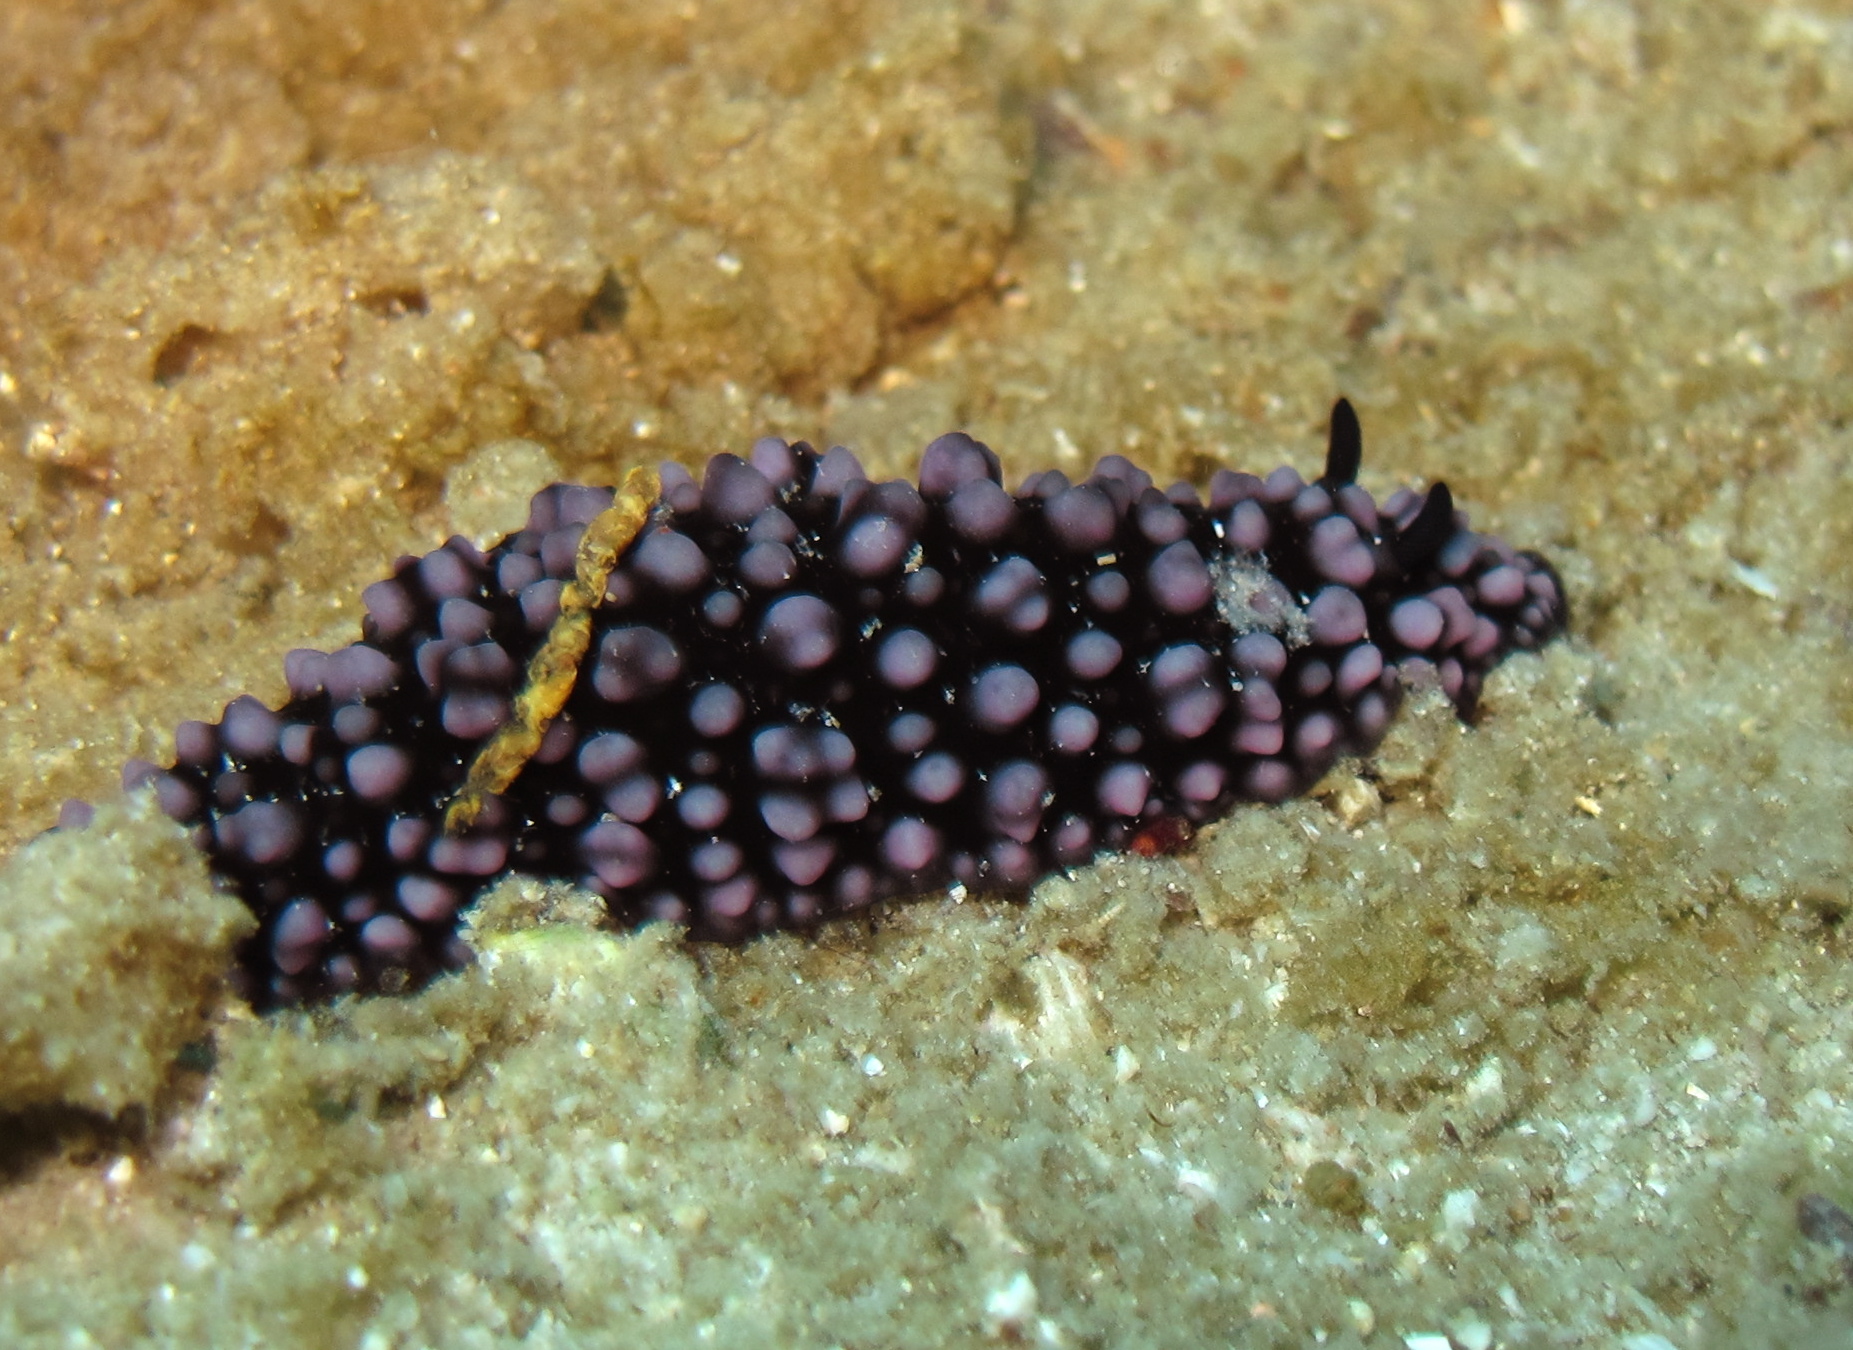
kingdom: Animalia
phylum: Mollusca
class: Gastropoda
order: Nudibranchia
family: Phyllidiidae
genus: Phyllidiella
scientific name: Phyllidiella nigra
